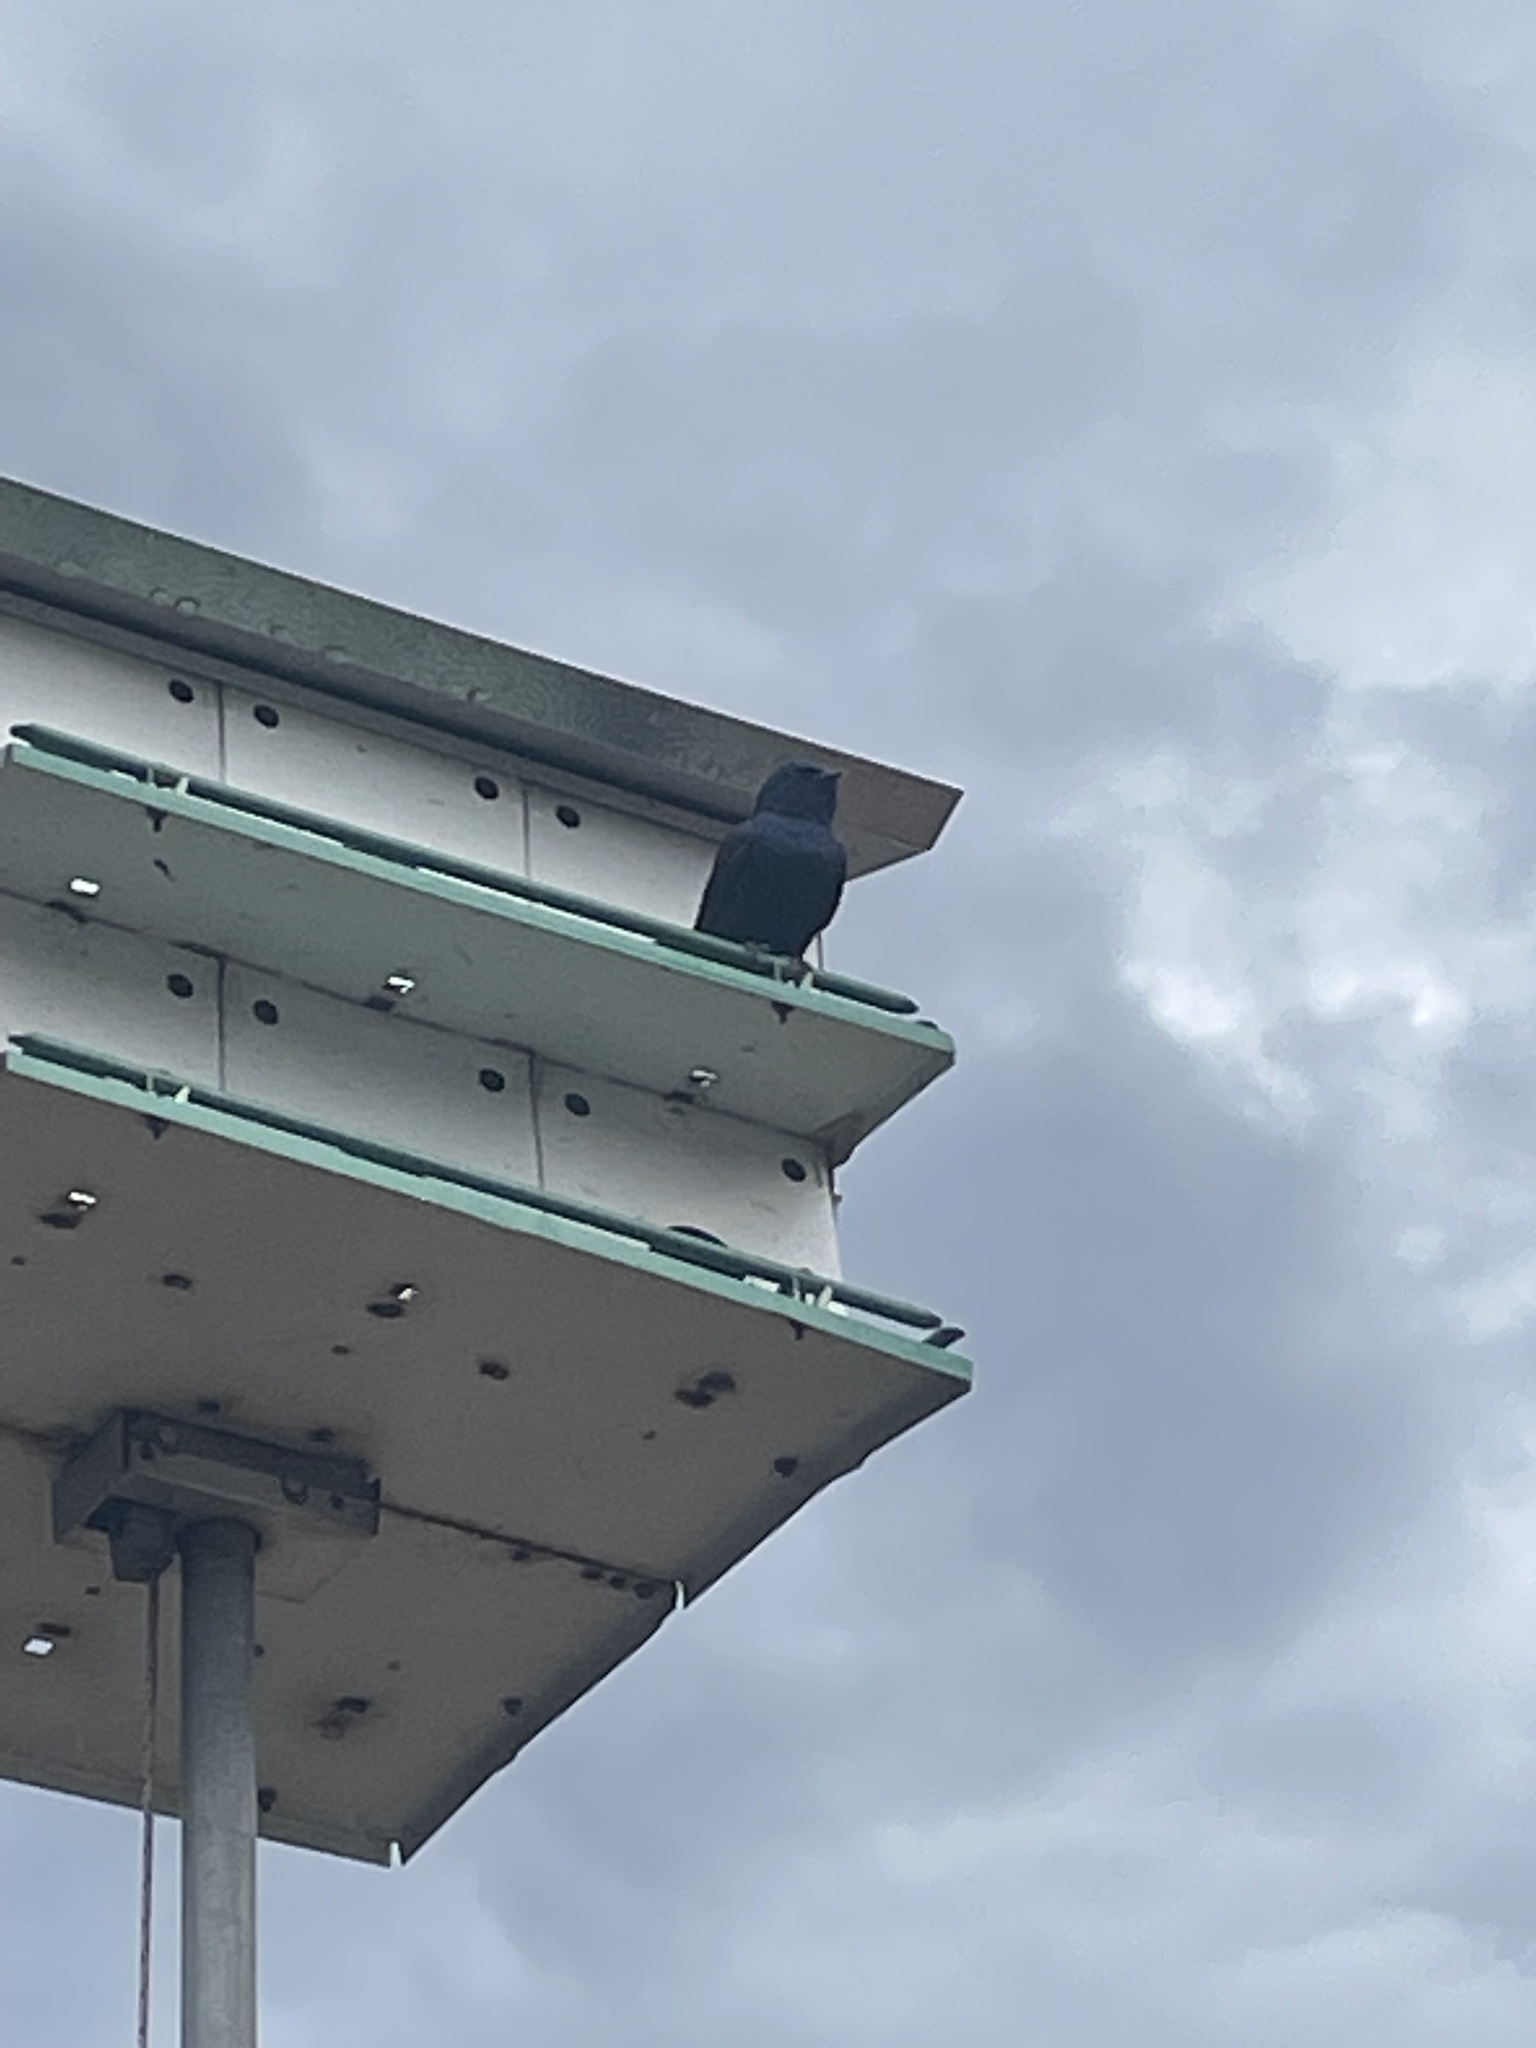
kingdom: Animalia
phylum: Chordata
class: Aves
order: Passeriformes
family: Hirundinidae
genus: Progne
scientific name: Progne subis
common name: Purple martin
